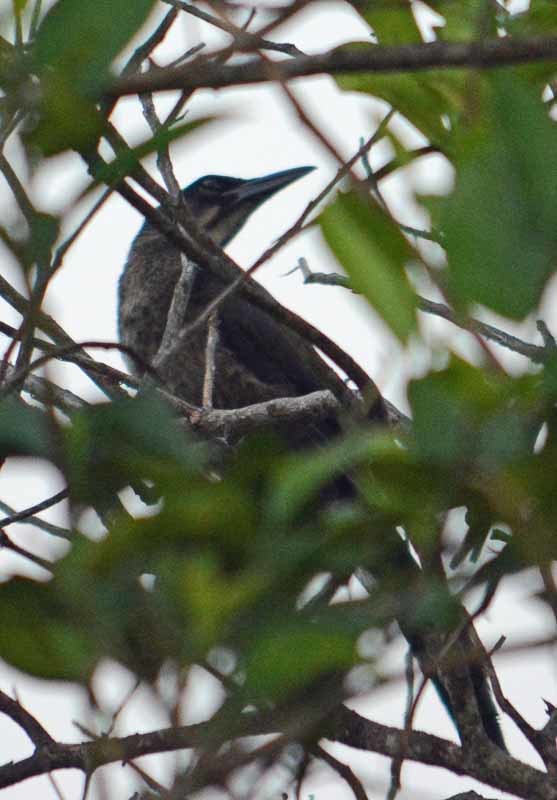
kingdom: Animalia
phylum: Chordata
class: Aves
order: Passeriformes
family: Icteridae
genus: Quiscalus
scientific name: Quiscalus mexicanus
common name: Great-tailed grackle
